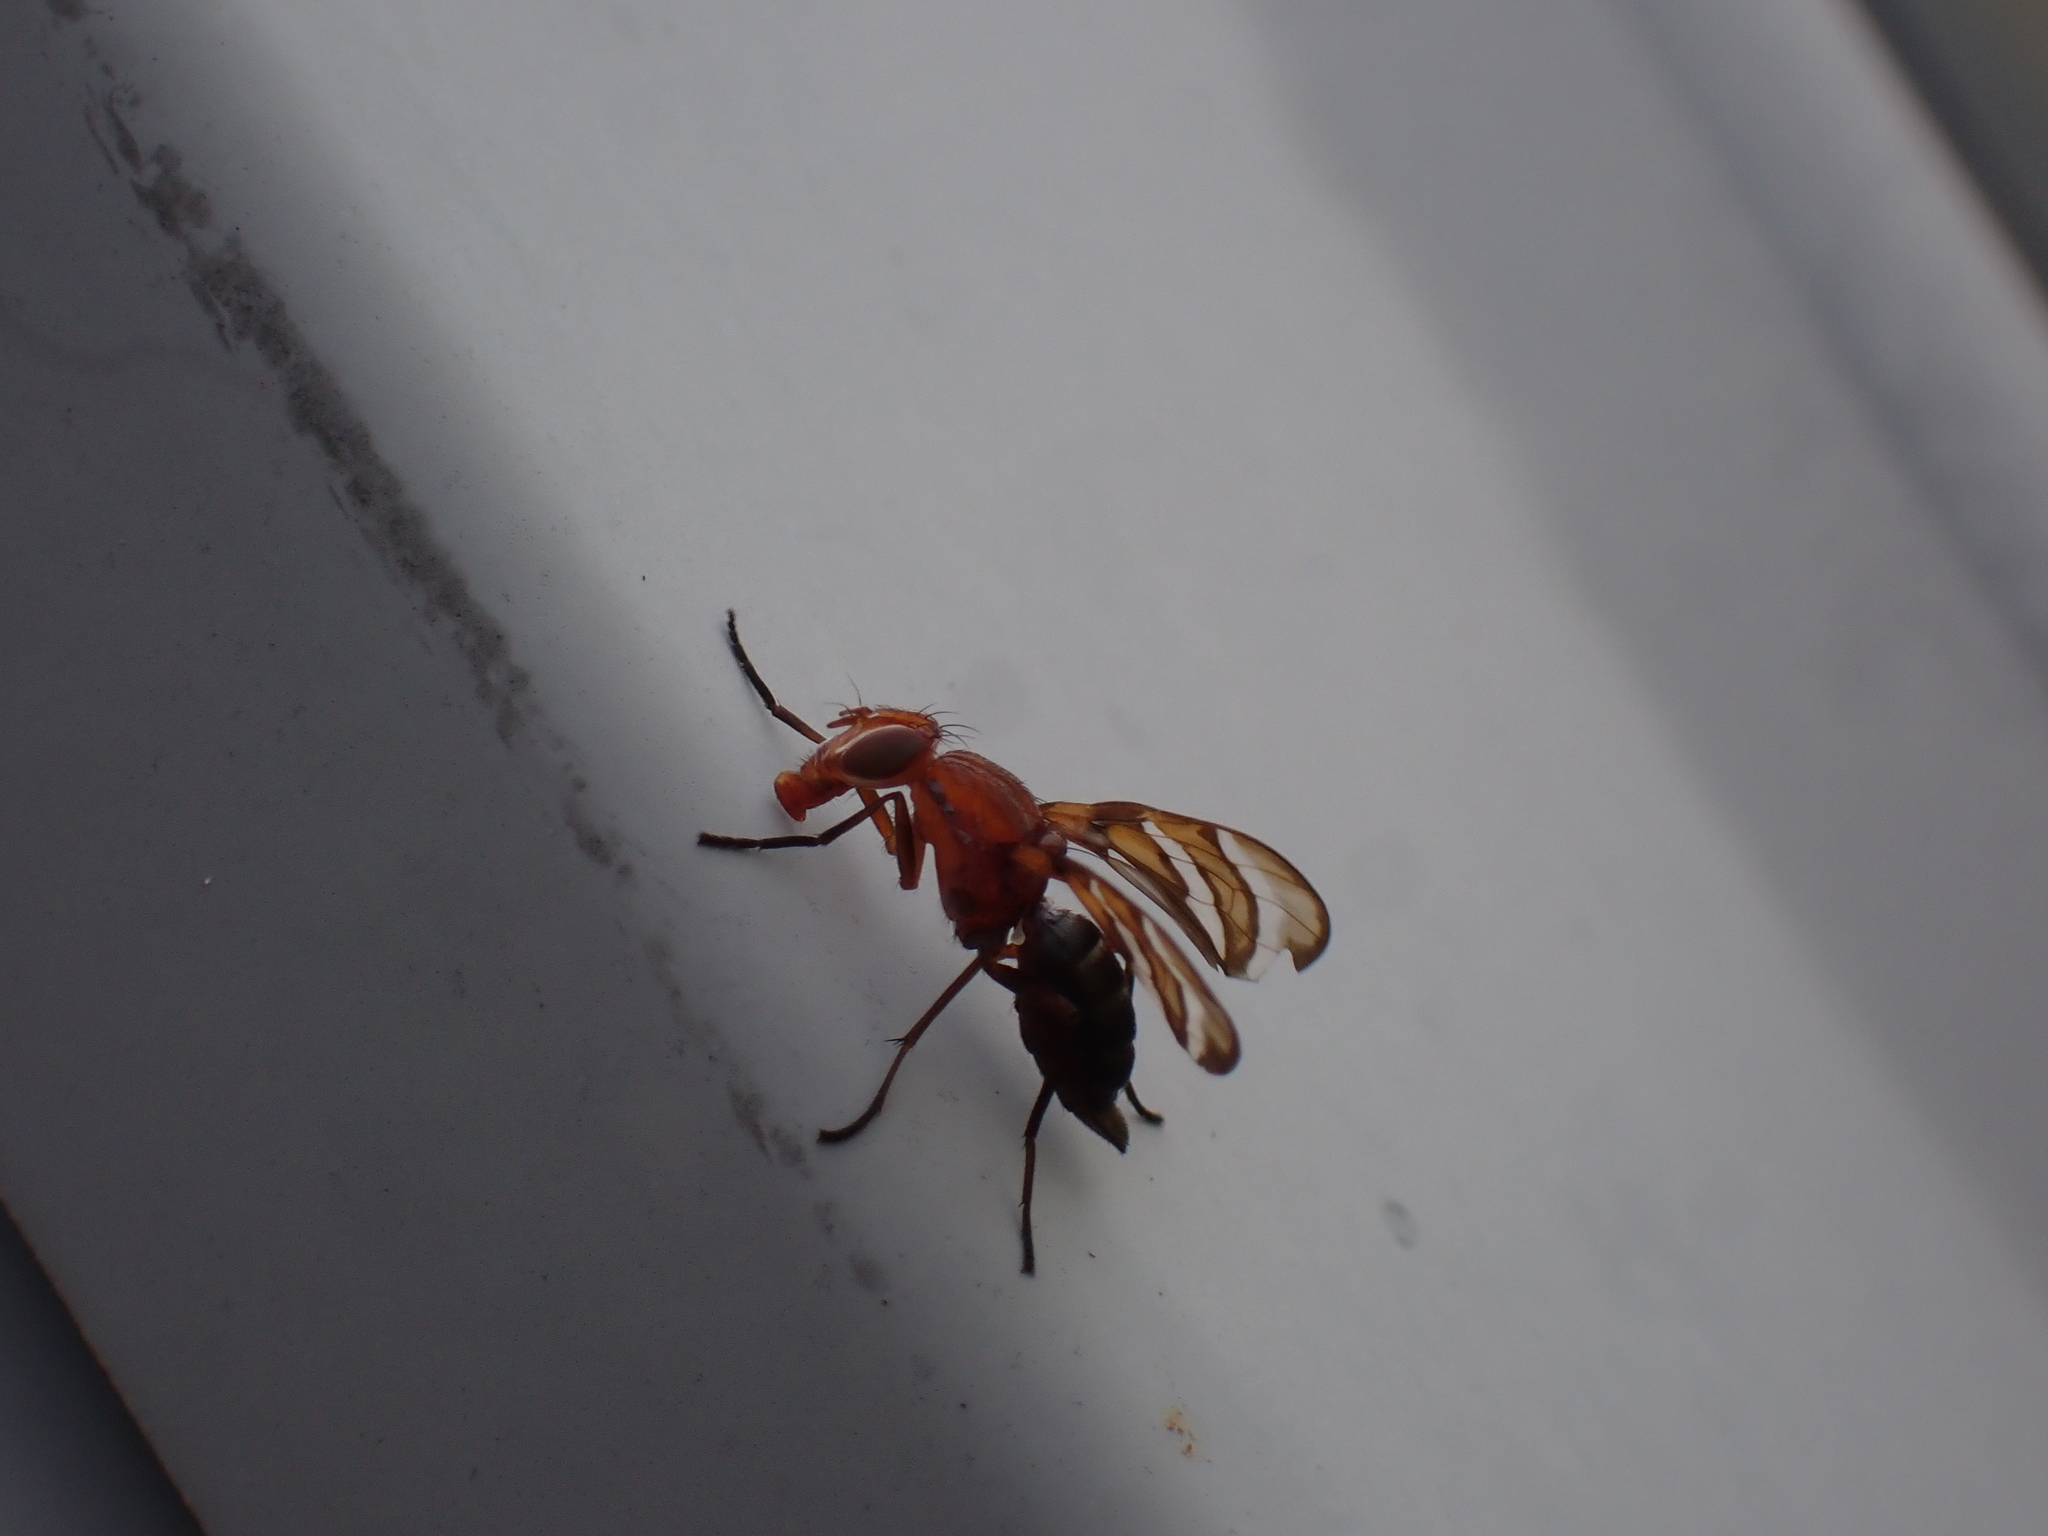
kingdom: Animalia
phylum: Arthropoda
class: Insecta
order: Diptera
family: Ulidiidae
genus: Tritoxa
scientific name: Tritoxa incurva
